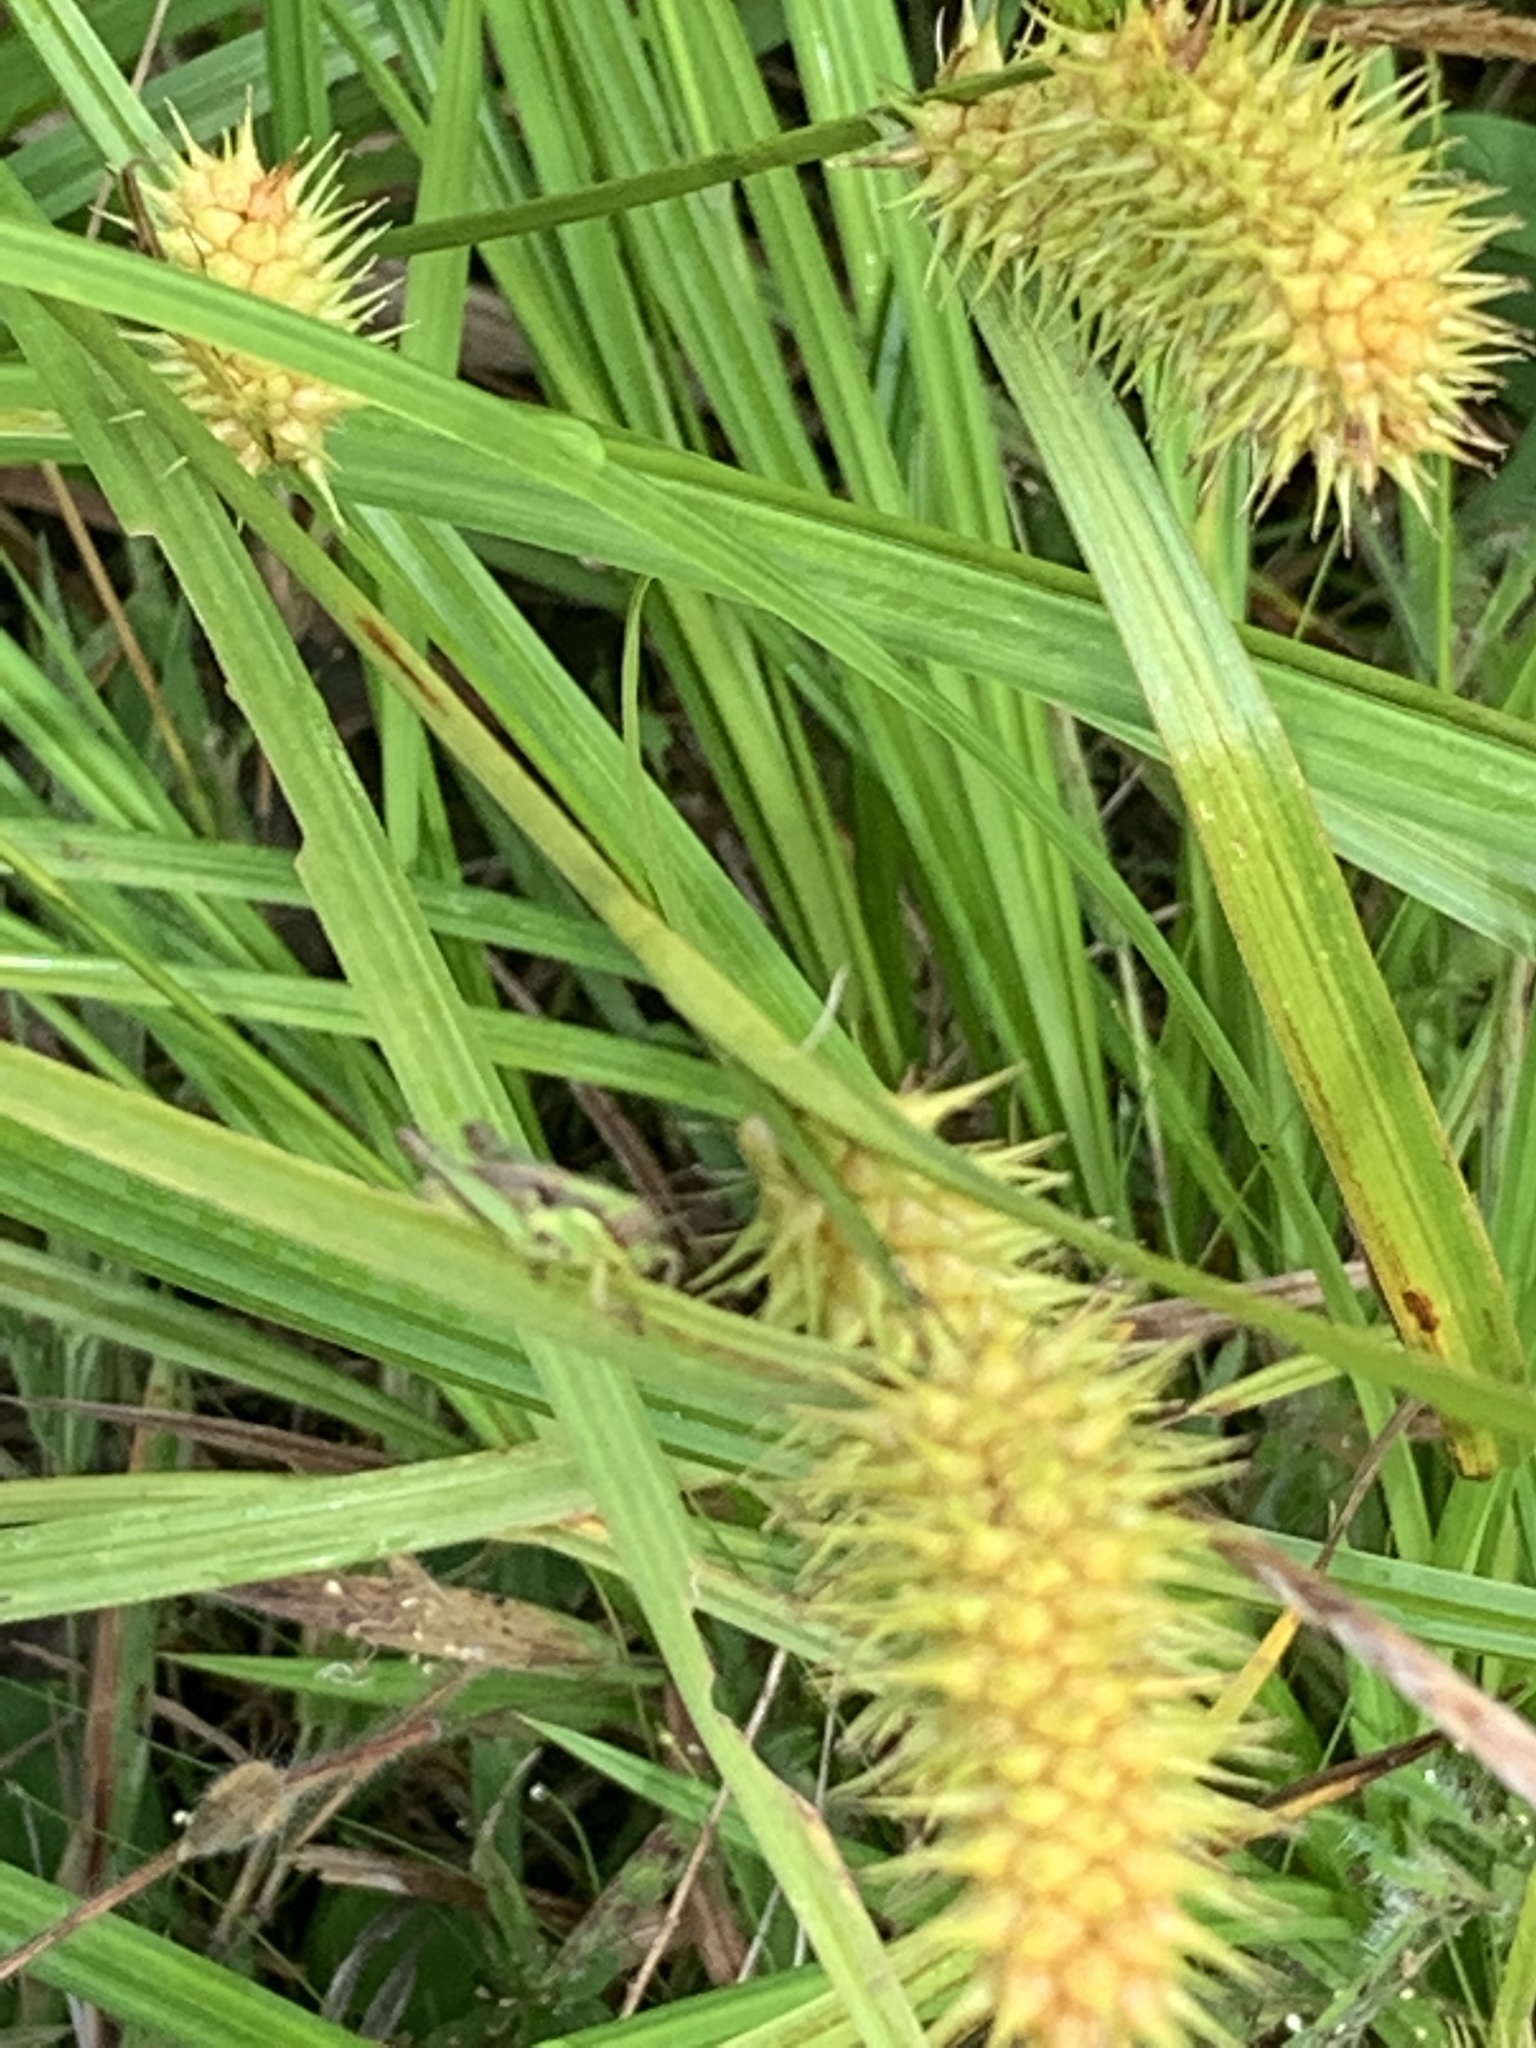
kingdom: Plantae
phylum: Tracheophyta
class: Liliopsida
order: Poales
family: Cyperaceae
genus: Carex
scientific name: Carex lurida
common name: Sallow sedge
